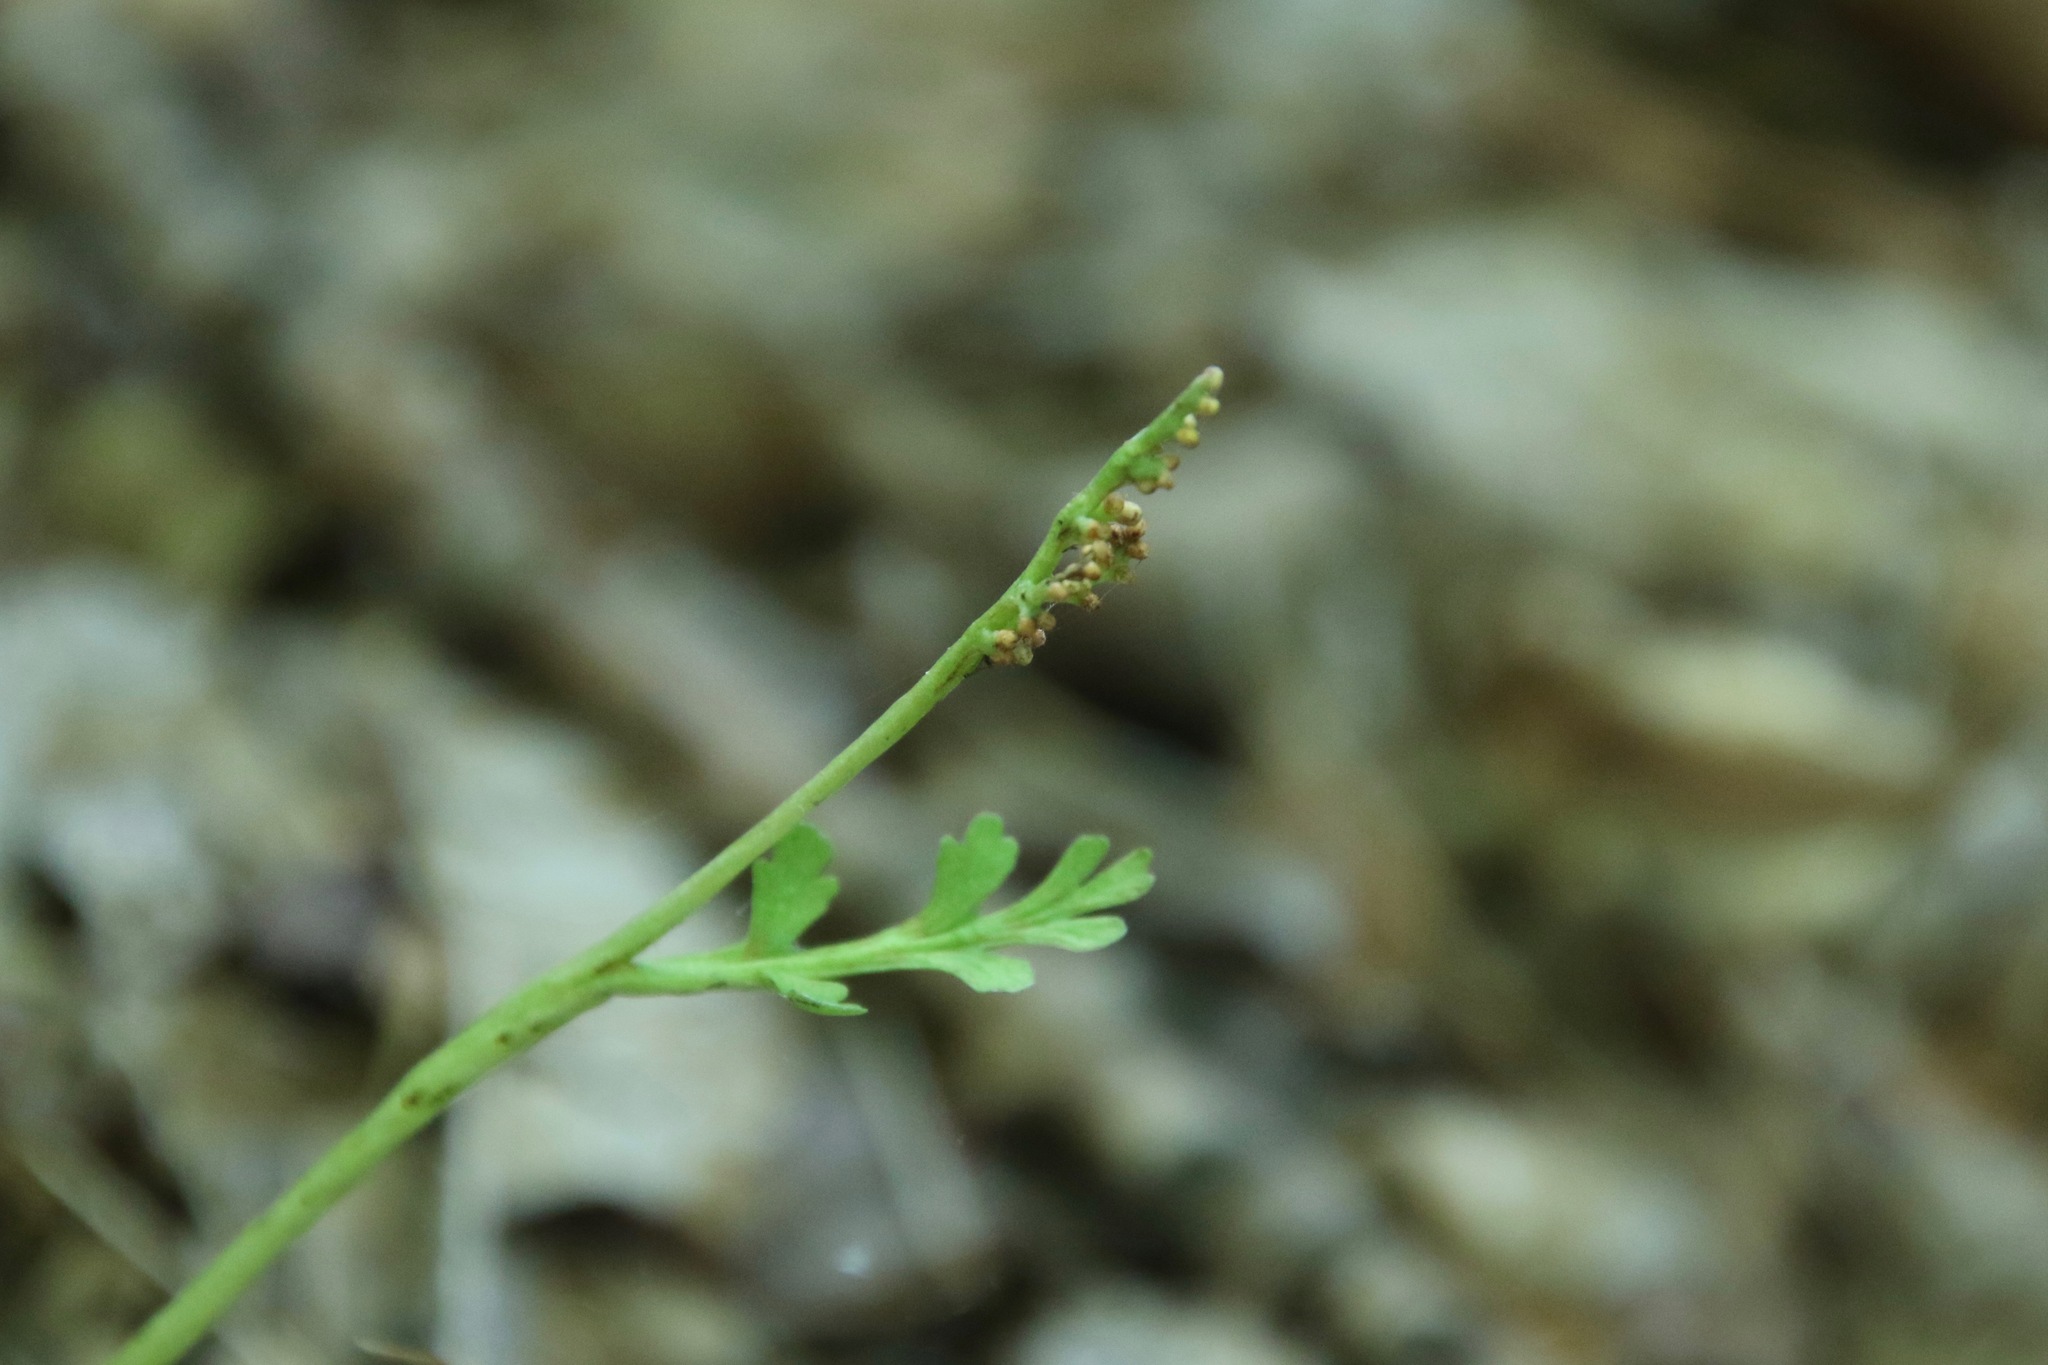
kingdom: Plantae
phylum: Tracheophyta
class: Polypodiopsida
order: Ophioglossales
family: Ophioglossaceae
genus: Botrychium
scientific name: Botrychium matricariifolium
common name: Branched moonwort
